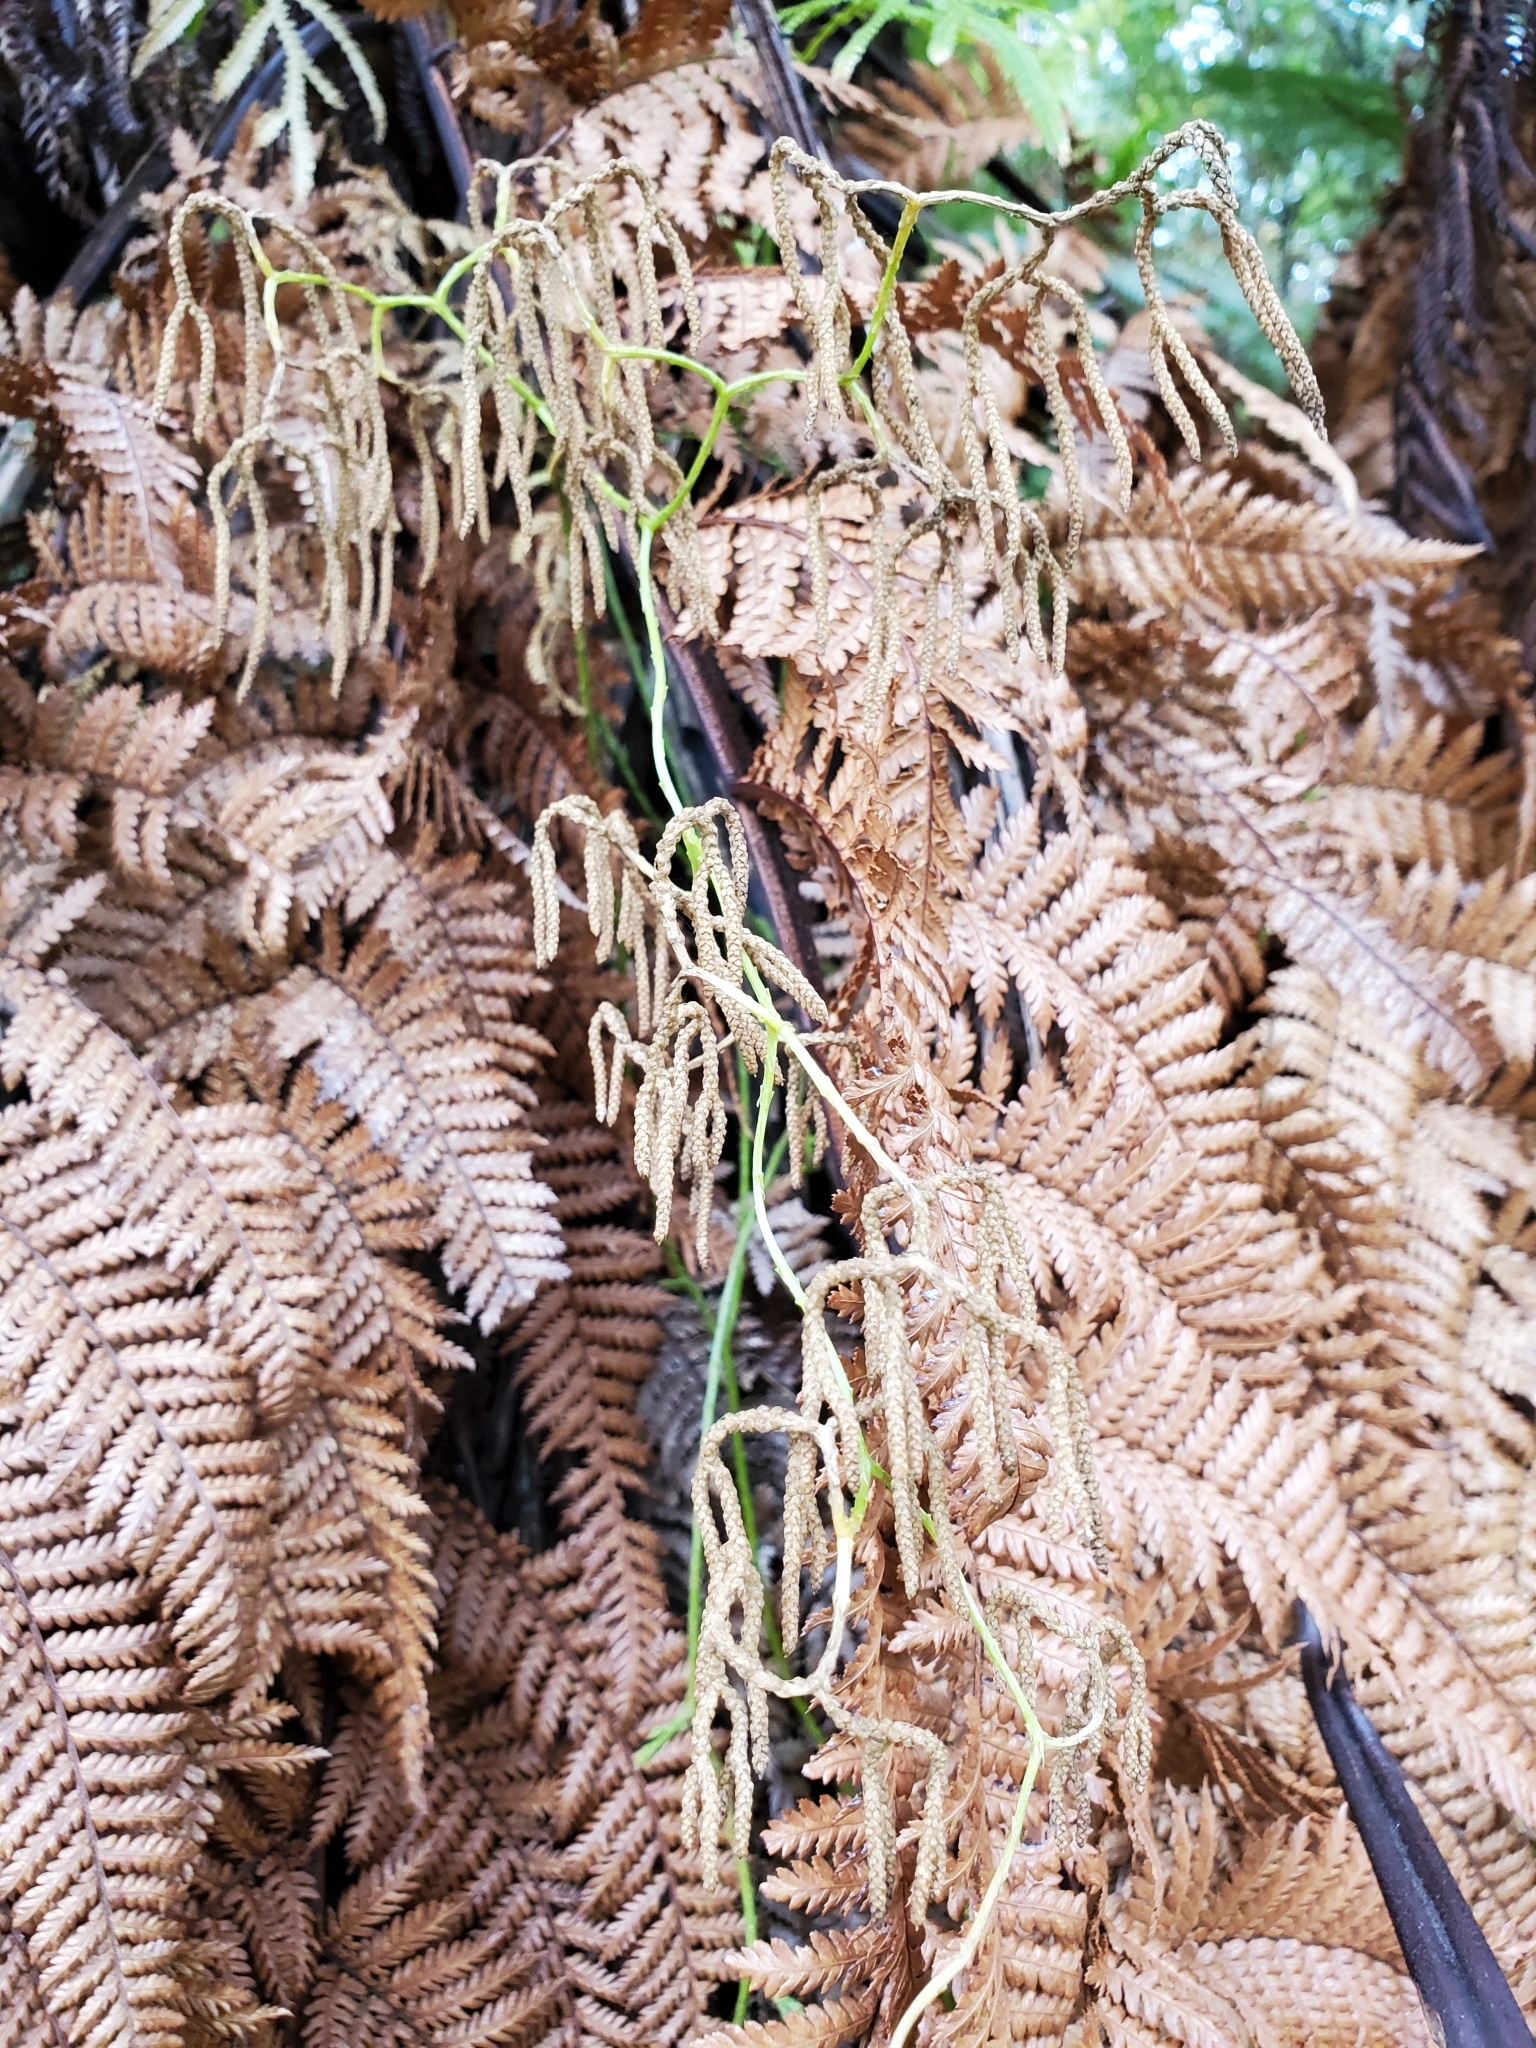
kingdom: Plantae
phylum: Tracheophyta
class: Lycopodiopsida
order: Lycopodiales
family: Lycopodiaceae
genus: Lycopodium
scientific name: Lycopodium volubile
